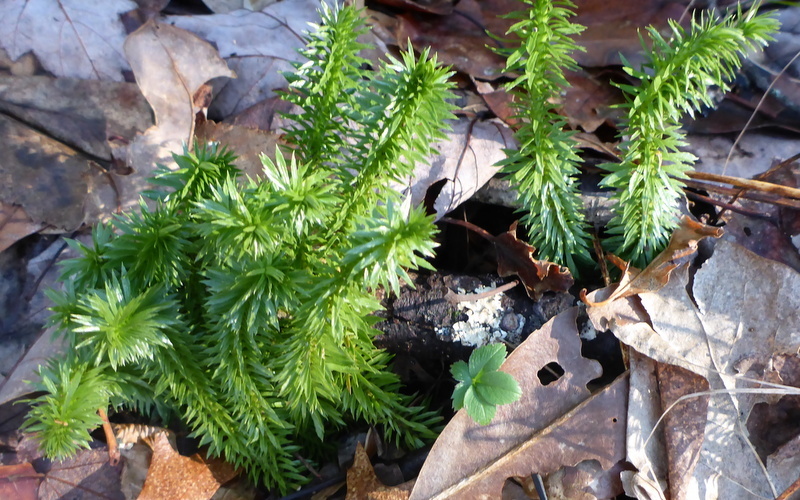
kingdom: Plantae
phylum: Tracheophyta
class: Lycopodiopsida
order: Lycopodiales
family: Lycopodiaceae
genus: Huperzia
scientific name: Huperzia lucidula
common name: Shining clubmoss
